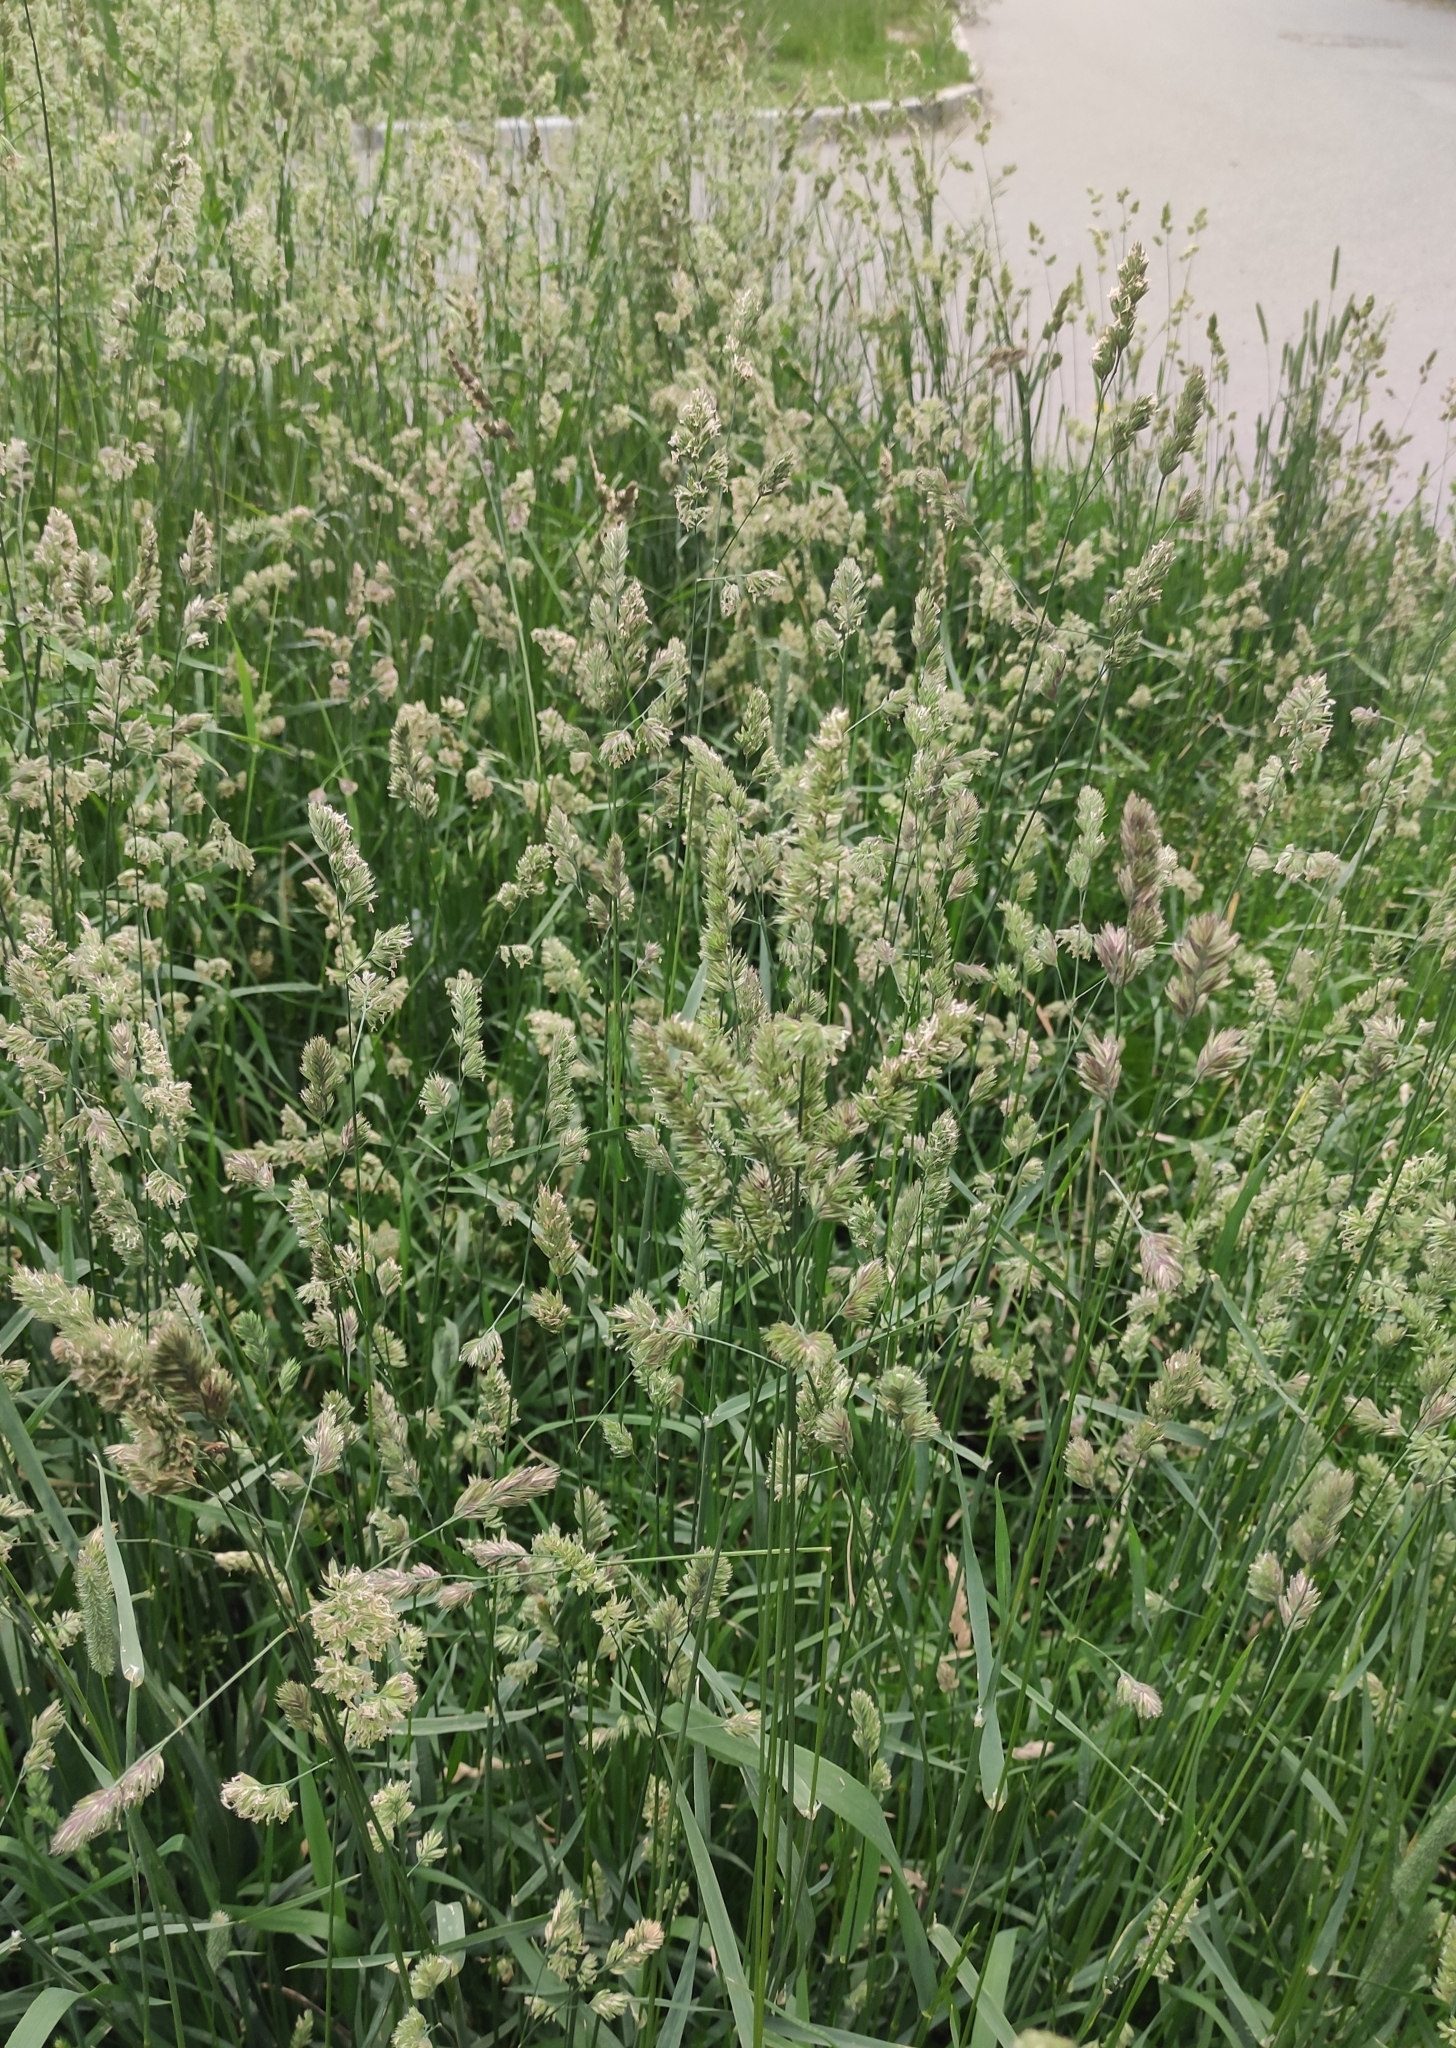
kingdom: Plantae
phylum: Tracheophyta
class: Liliopsida
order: Poales
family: Poaceae
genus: Dactylis
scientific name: Dactylis glomerata
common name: Orchardgrass
